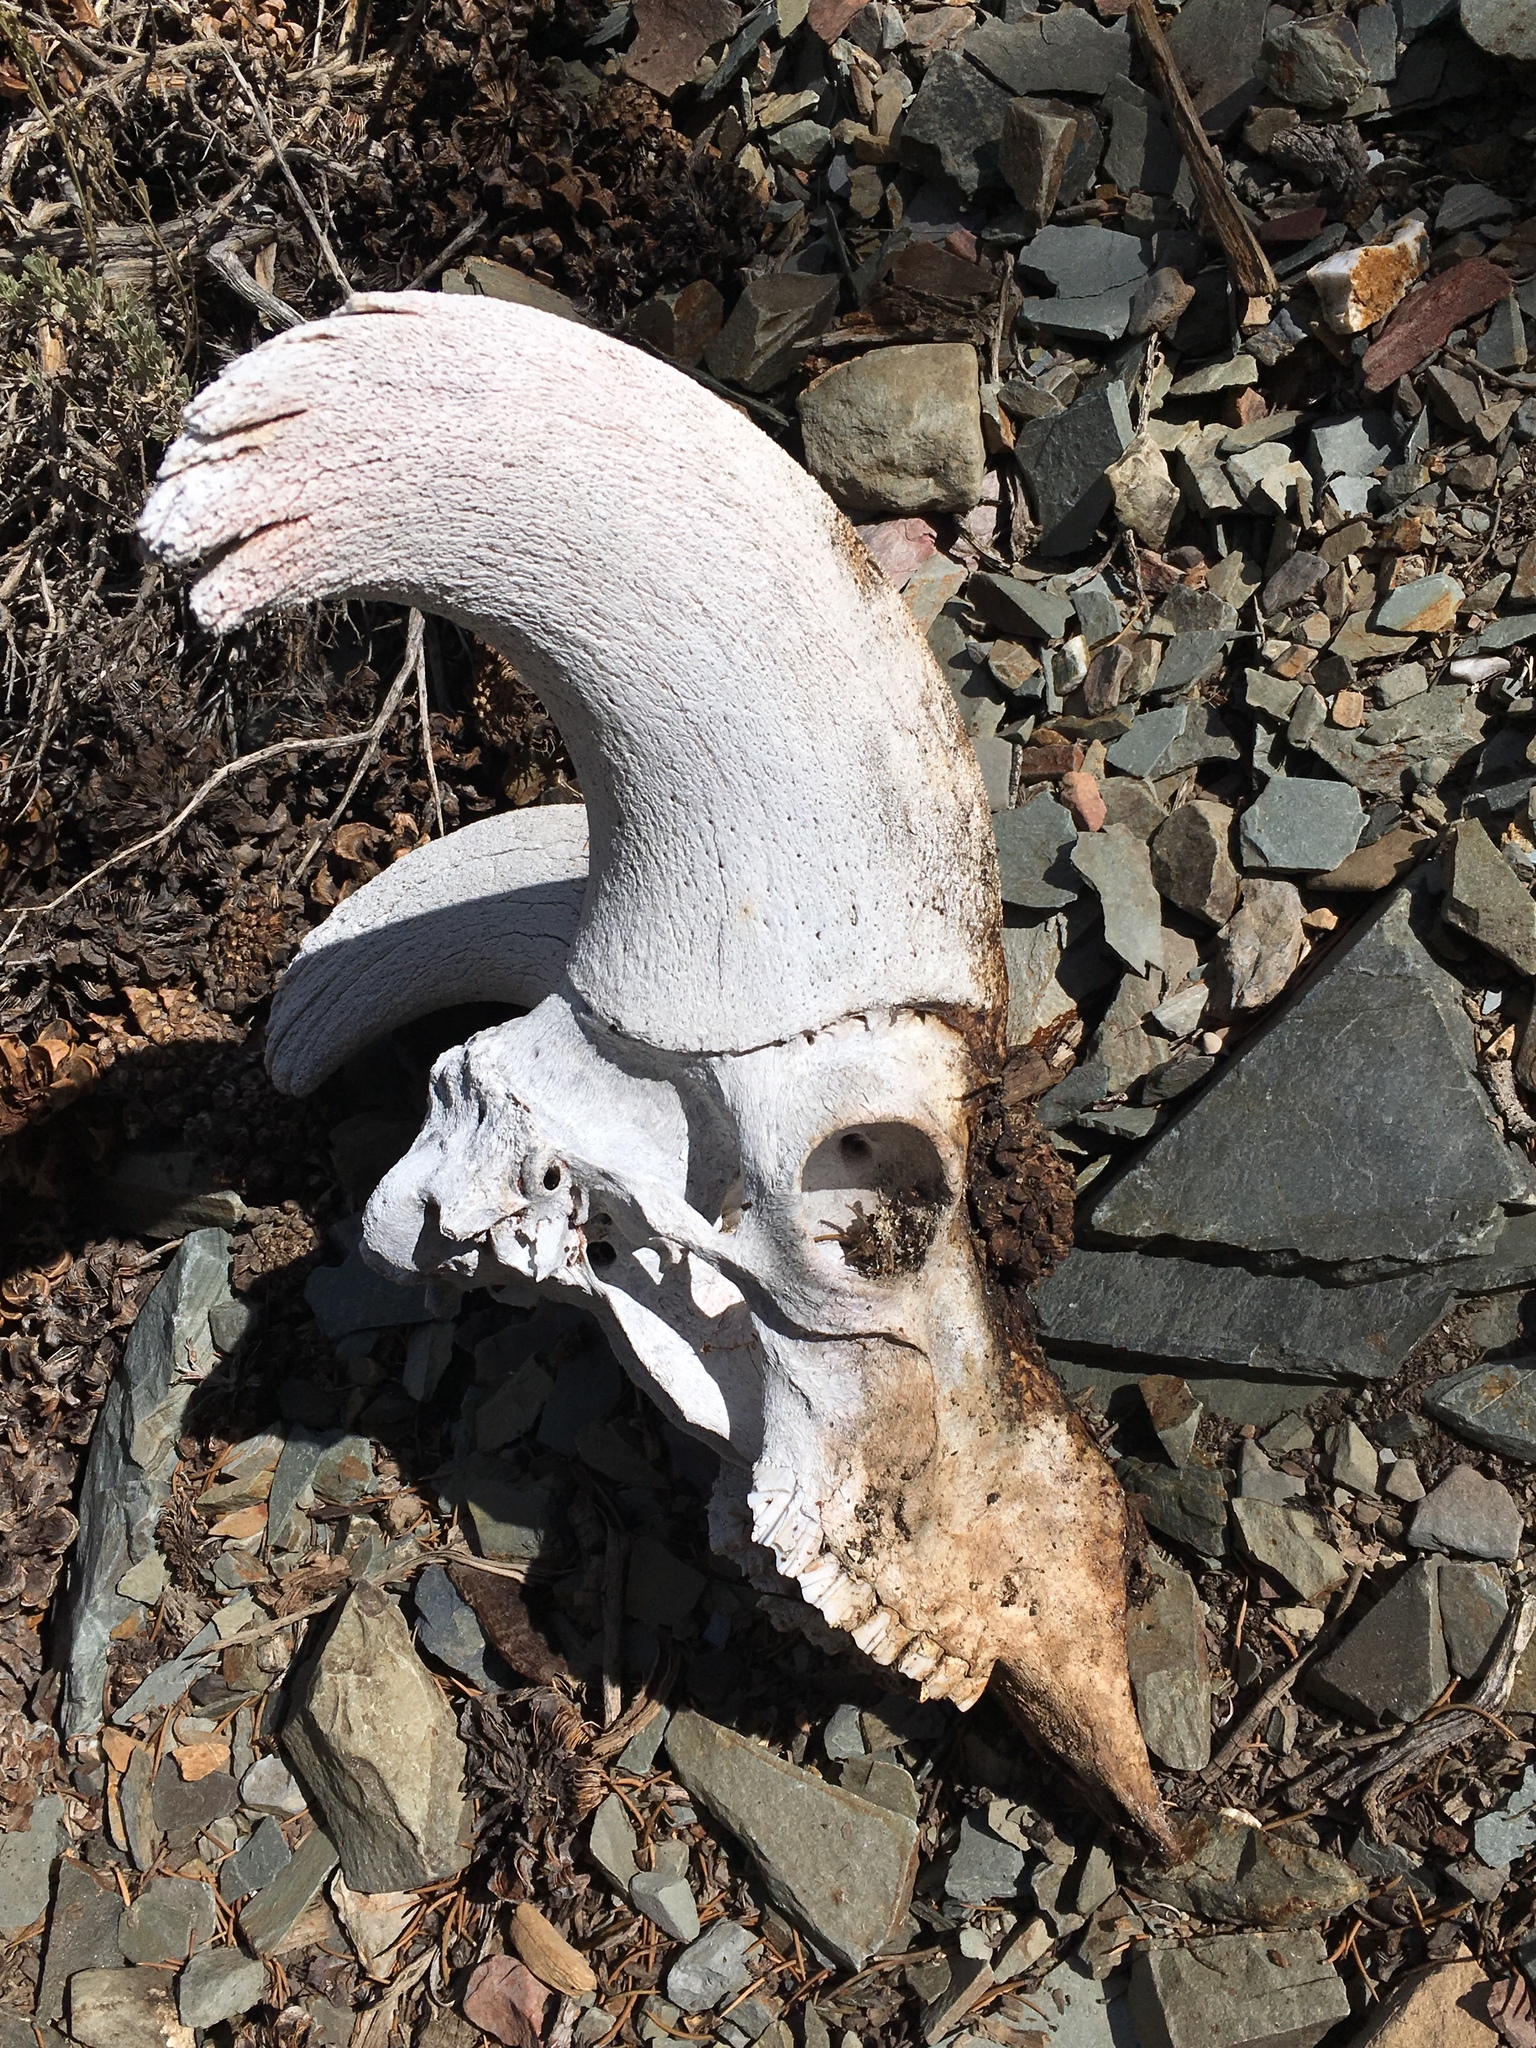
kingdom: Animalia
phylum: Chordata
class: Mammalia
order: Artiodactyla
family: Bovidae
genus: Ovis
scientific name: Ovis canadensis
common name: Bighorn sheep
